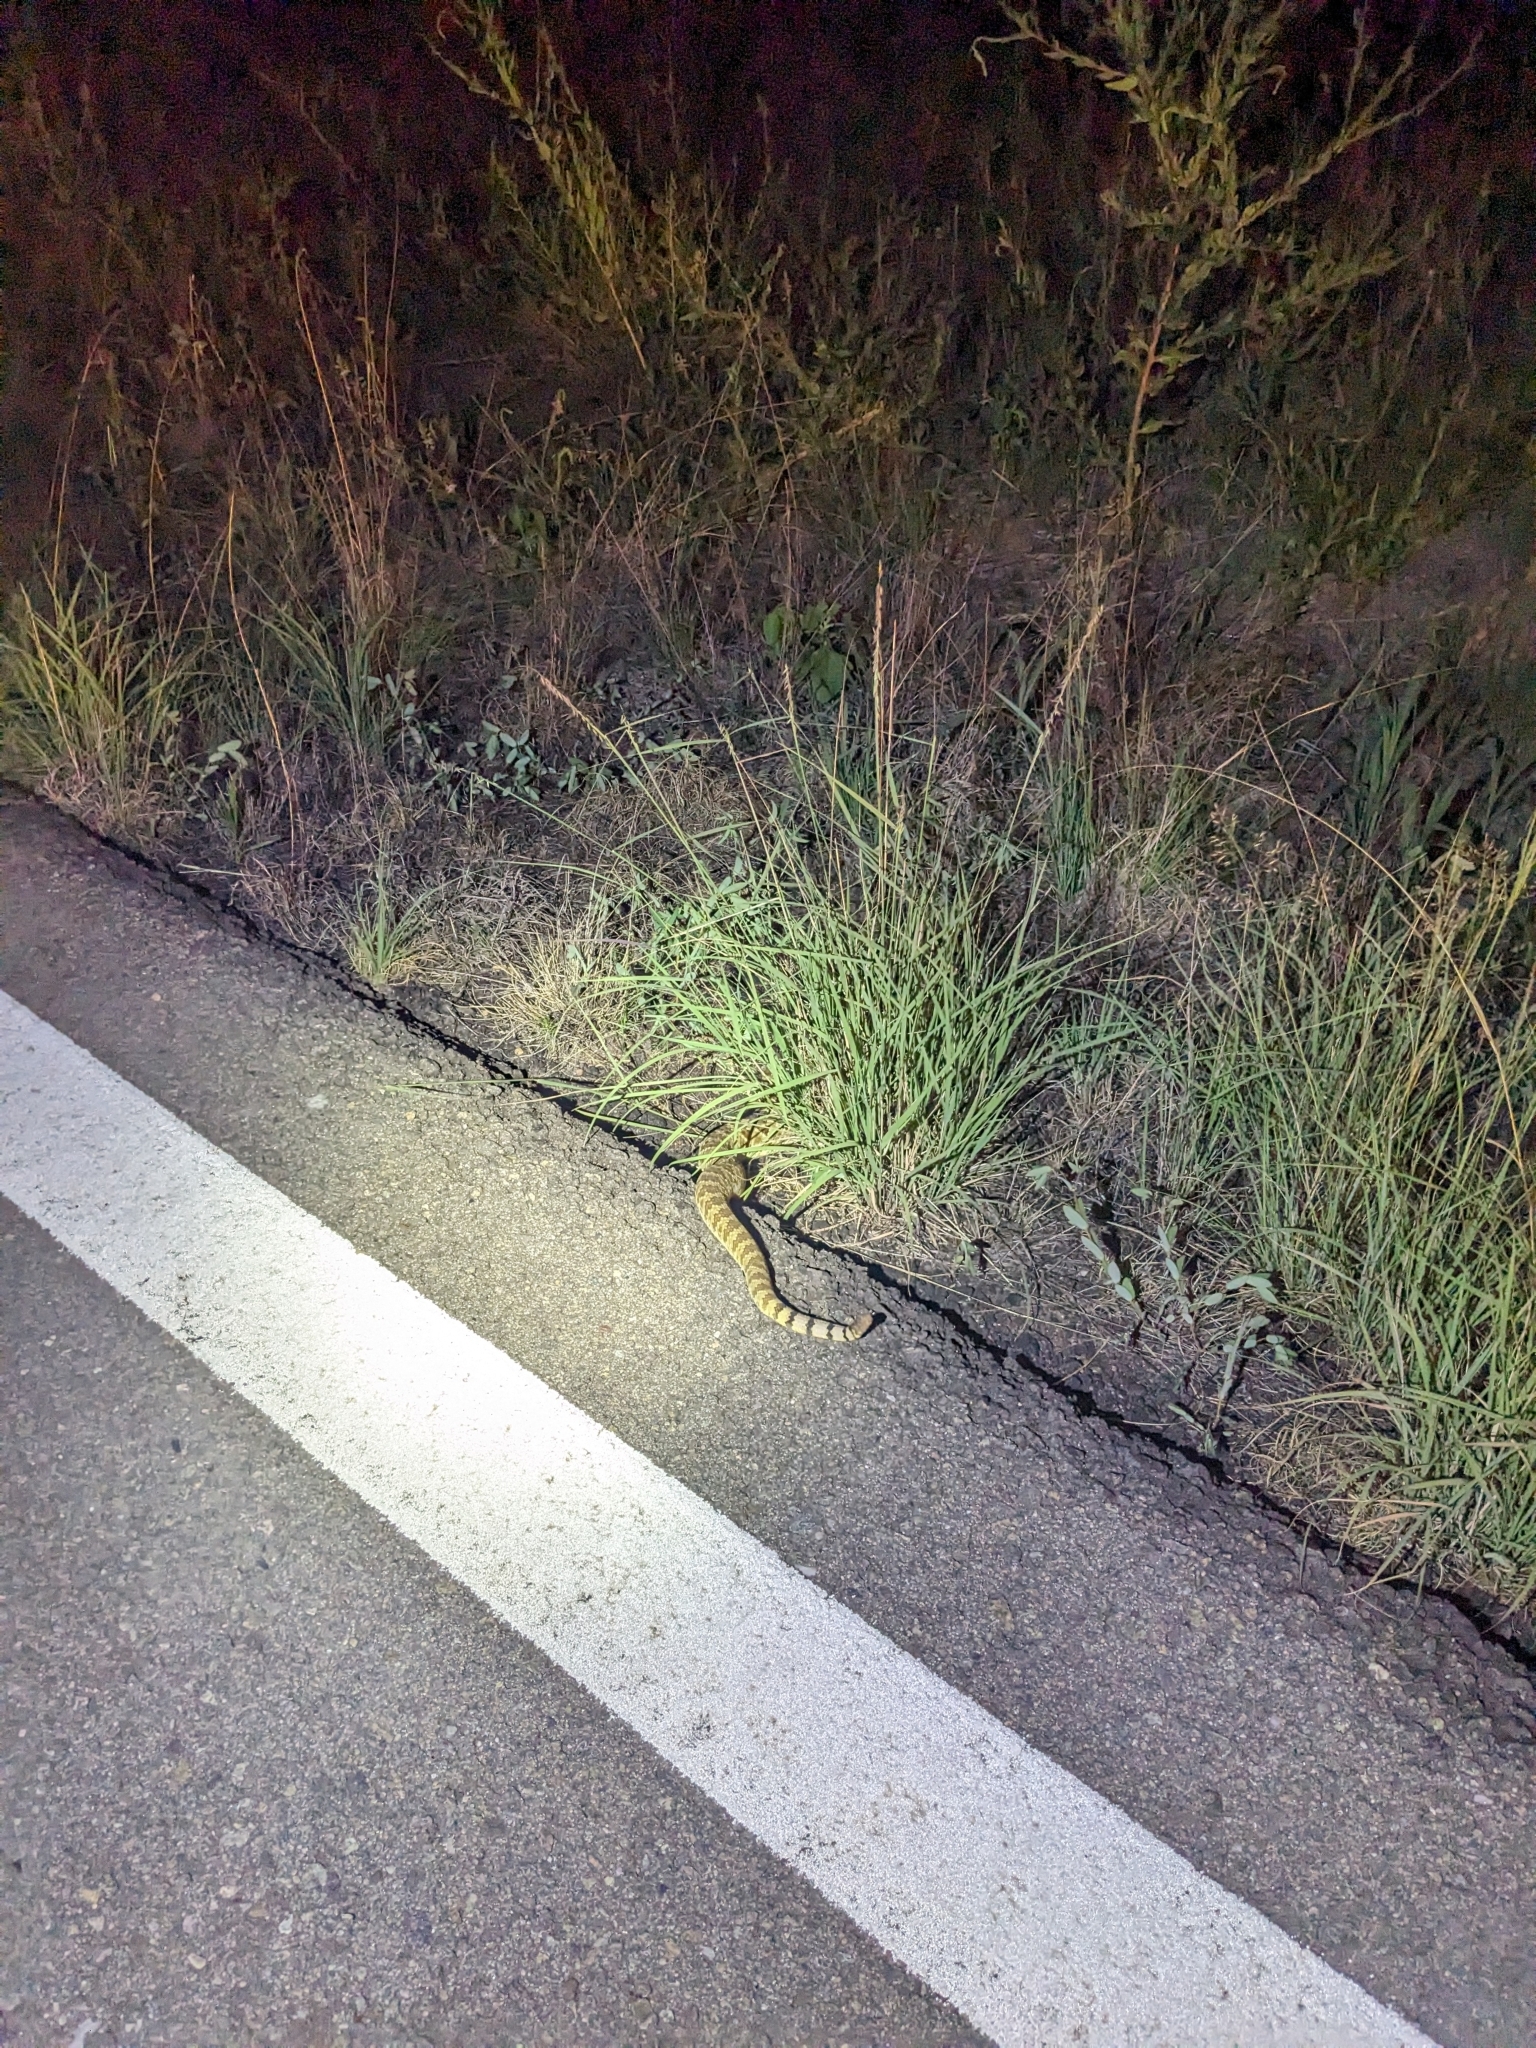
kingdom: Animalia
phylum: Chordata
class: Squamata
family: Viperidae
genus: Crotalus
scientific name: Crotalus scutulatus
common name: Scutulatus
